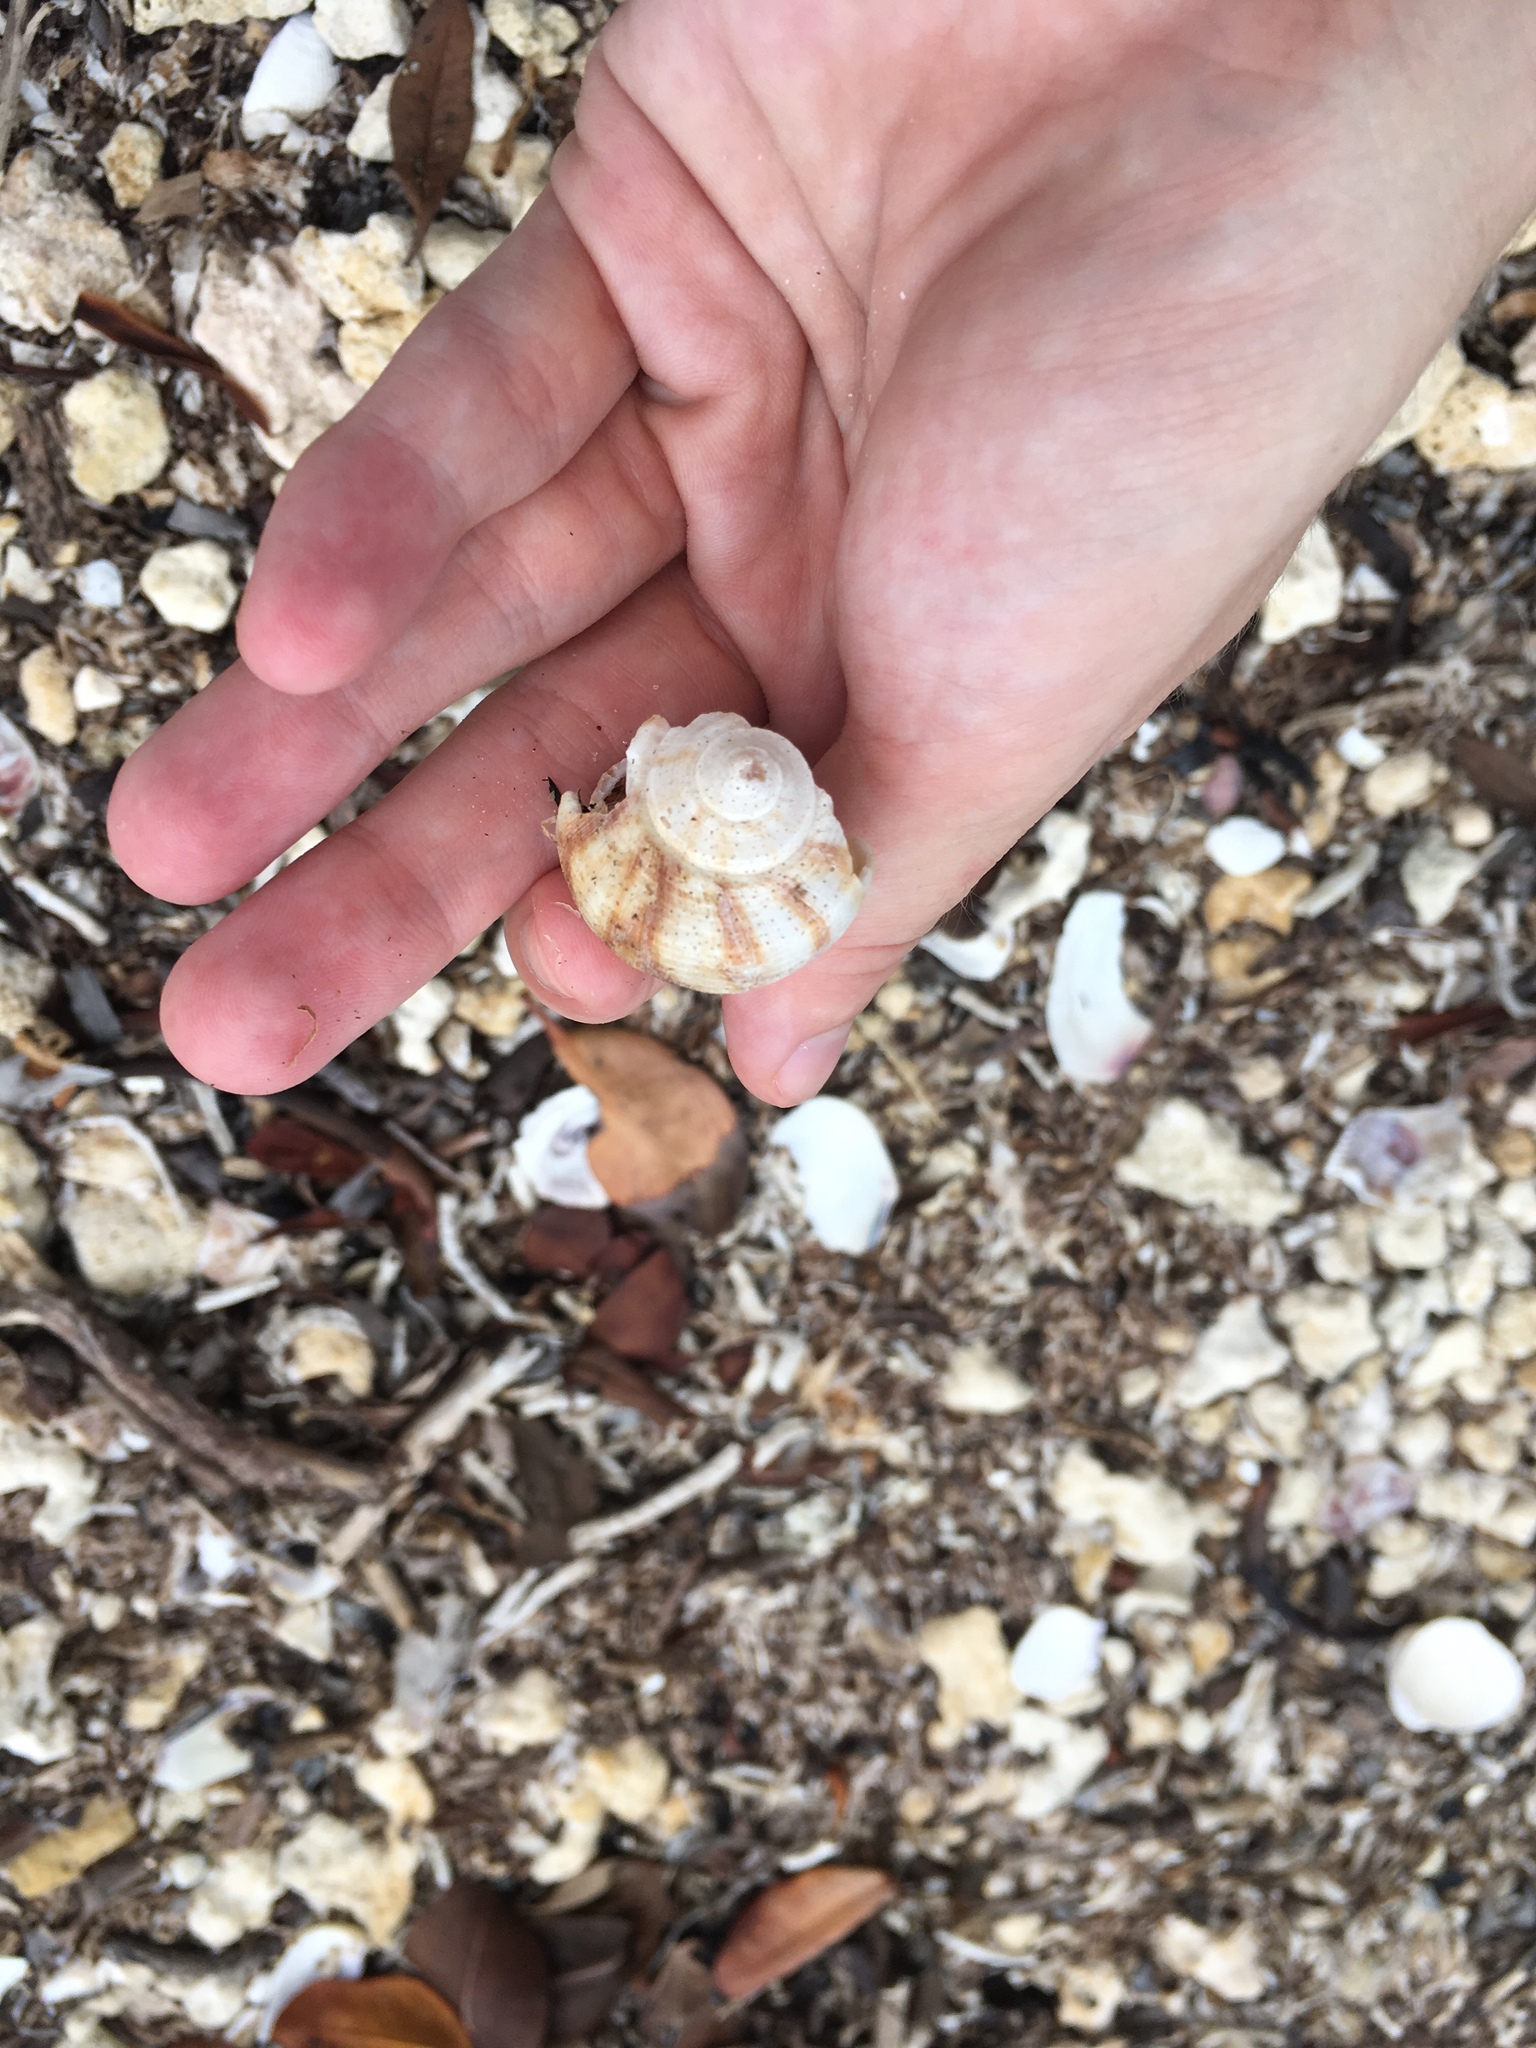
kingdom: Animalia
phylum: Mollusca
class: Gastropoda
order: Neogastropoda
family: Busyconidae
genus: Fulguropsis
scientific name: Fulguropsis pyruloides
